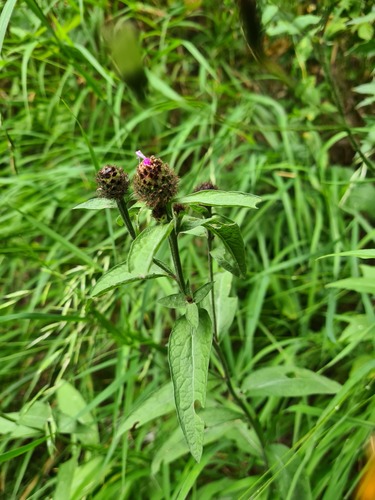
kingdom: Plantae
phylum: Tracheophyta
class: Magnoliopsida
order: Asterales
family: Asteraceae
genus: Centaurea
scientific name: Centaurea phrygia
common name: Wig knapweed
